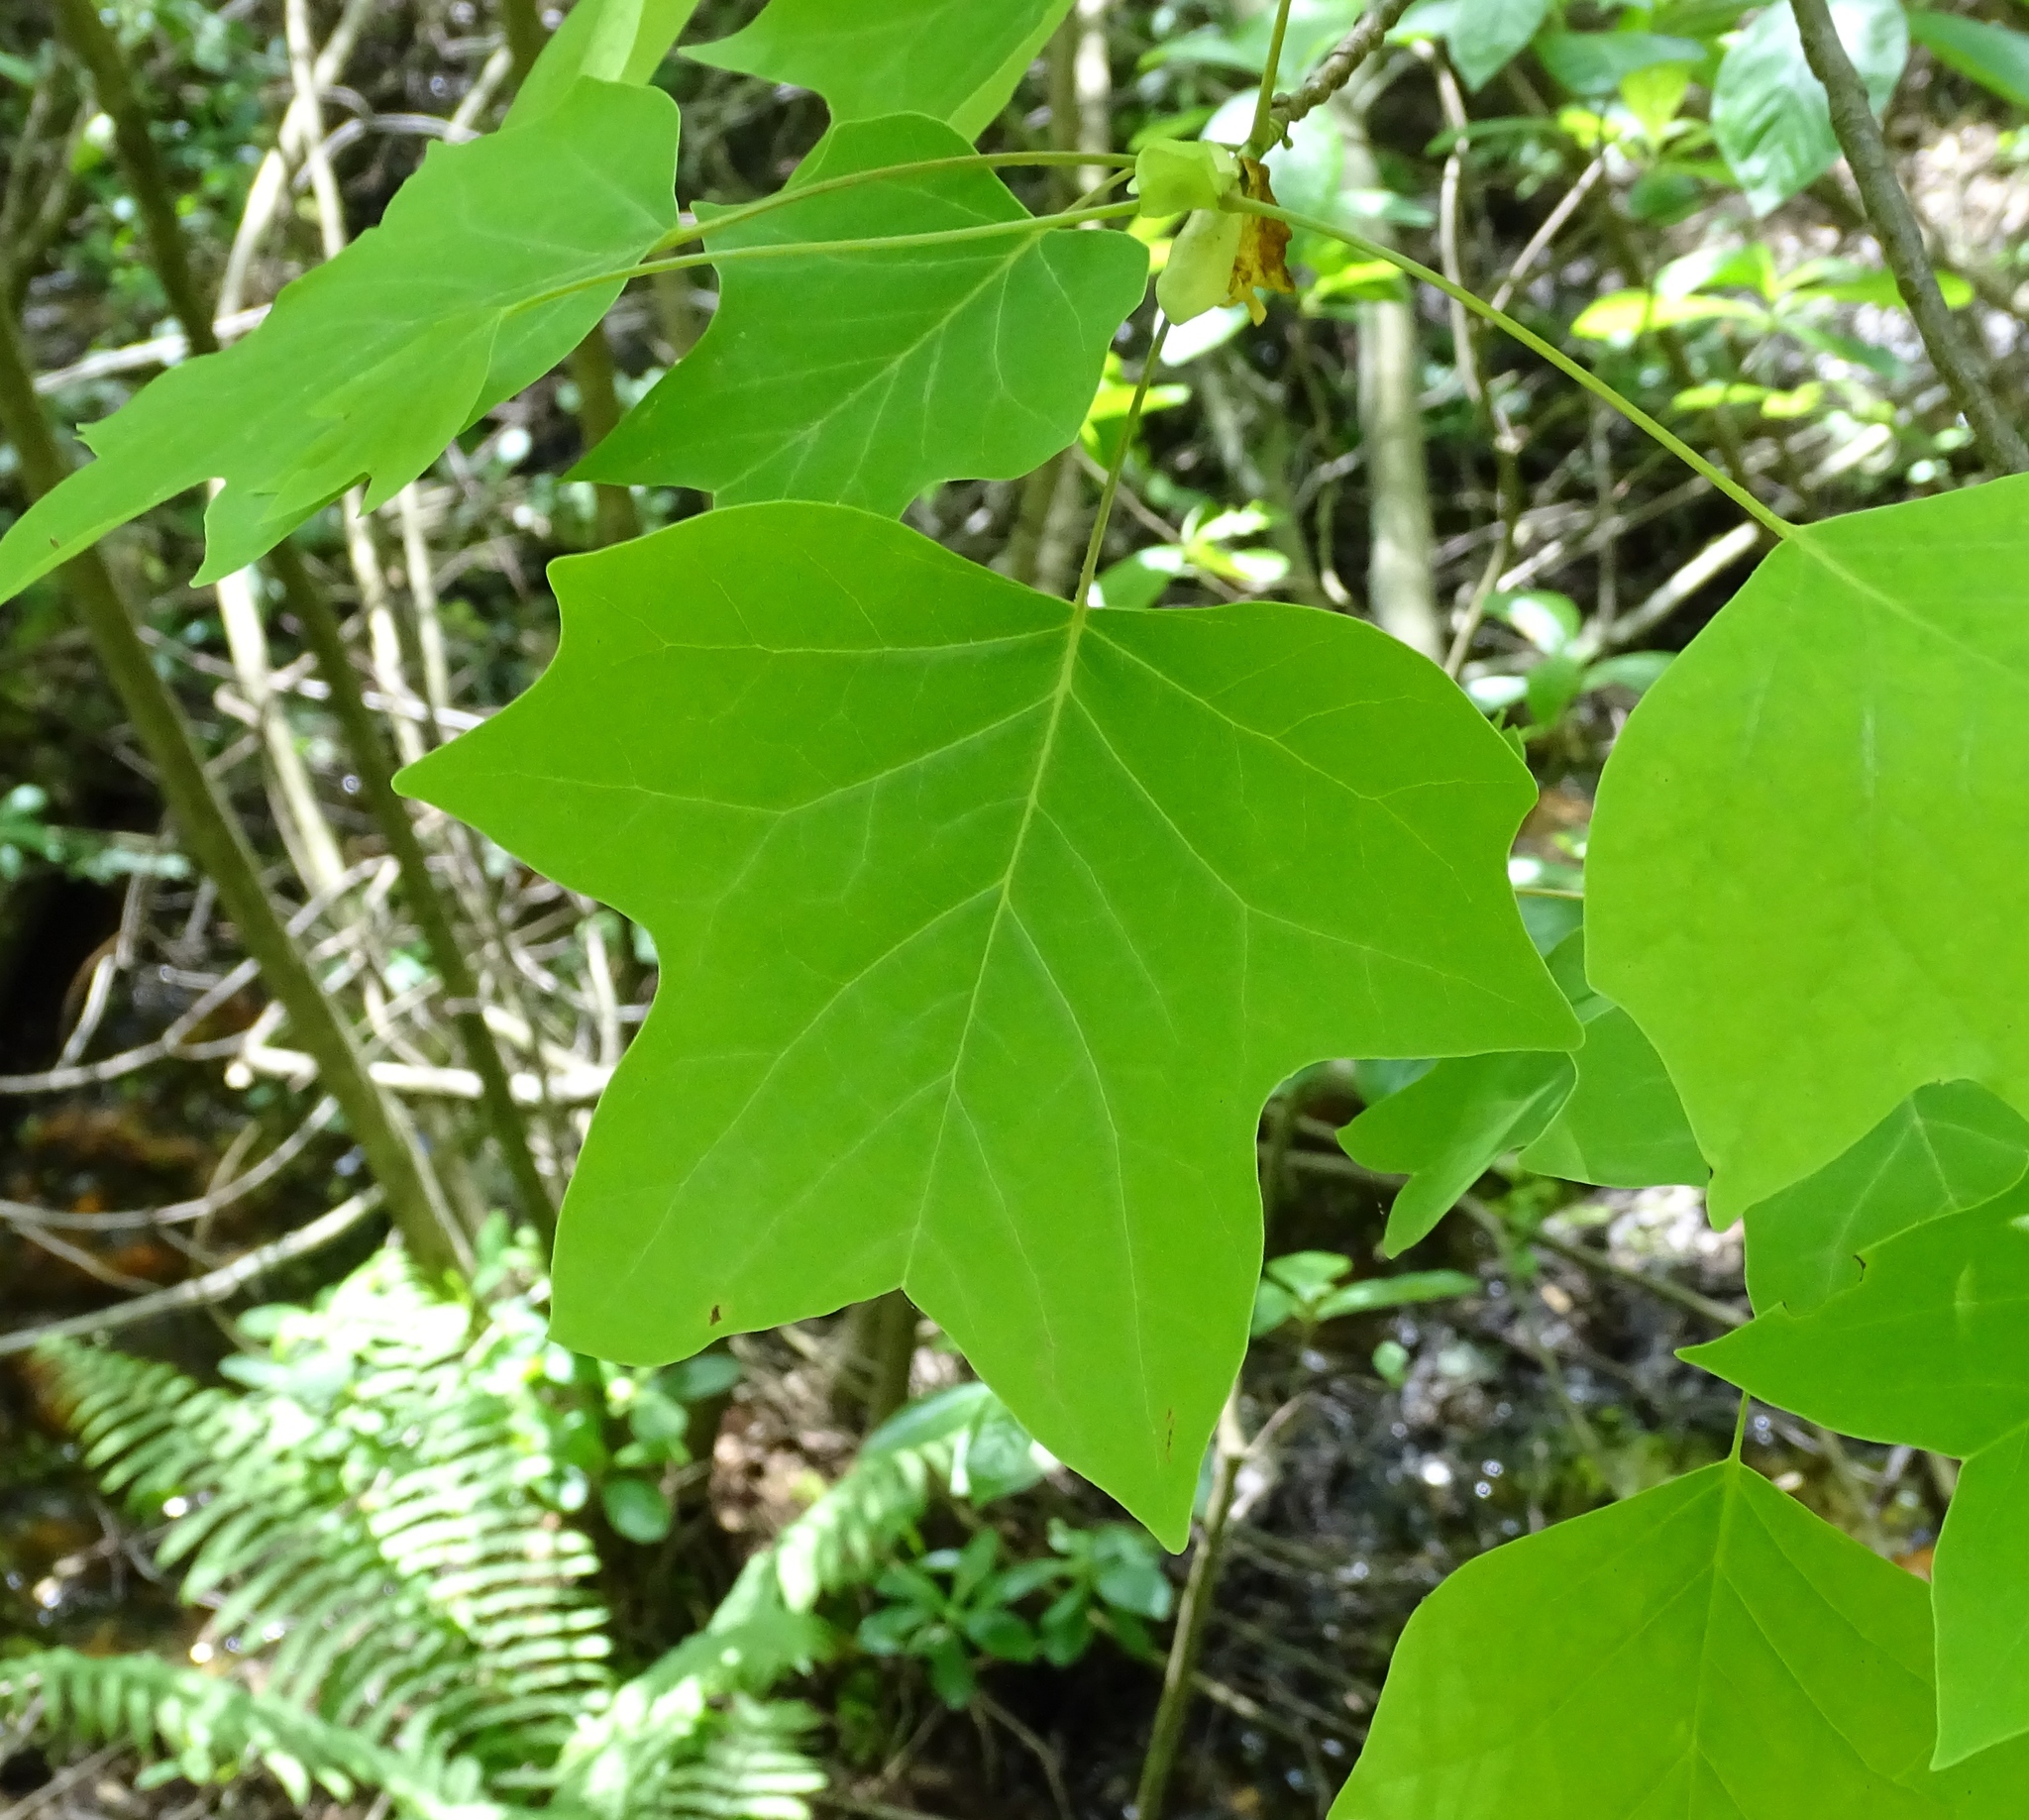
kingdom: Plantae
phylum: Tracheophyta
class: Magnoliopsida
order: Magnoliales
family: Magnoliaceae
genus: Liriodendron
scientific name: Liriodendron tulipifera
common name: Tulip tree
